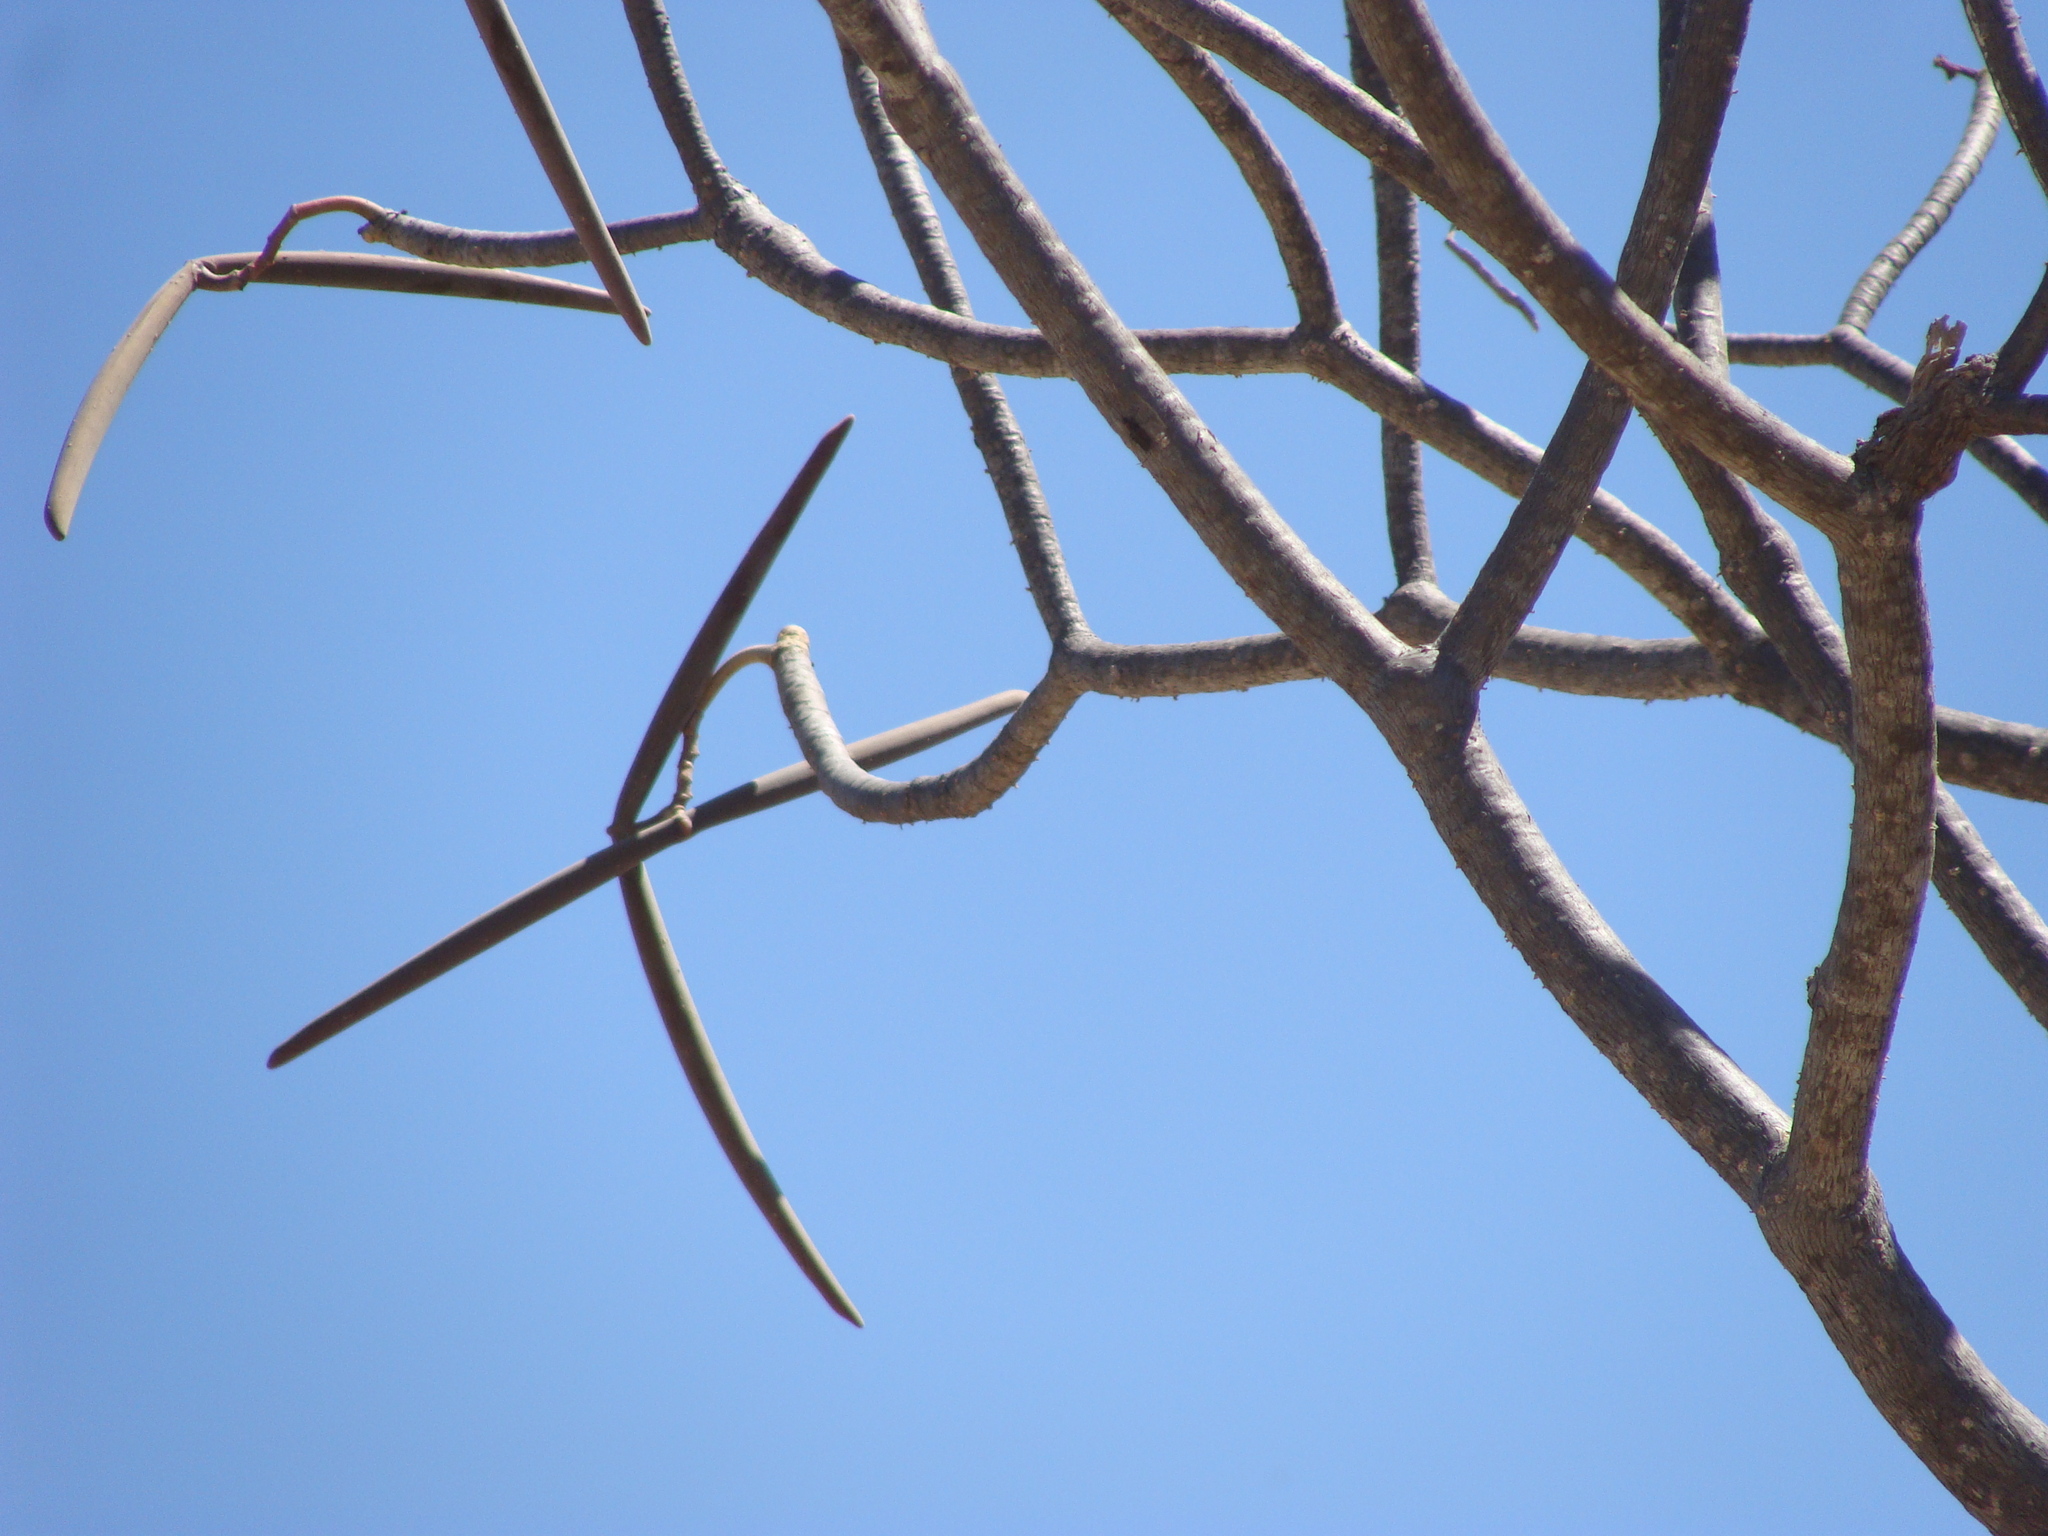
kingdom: Plantae
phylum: Tracheophyta
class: Magnoliopsida
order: Gentianales
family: Apocynaceae
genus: Plumeria
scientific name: Plumeria rubra
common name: Pagoda-tree
